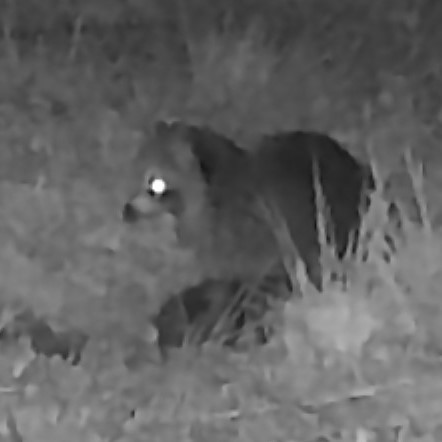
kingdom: Animalia
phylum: Chordata
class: Mammalia
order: Carnivora
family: Procyonidae
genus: Procyon
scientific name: Procyon lotor
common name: Raccoon
